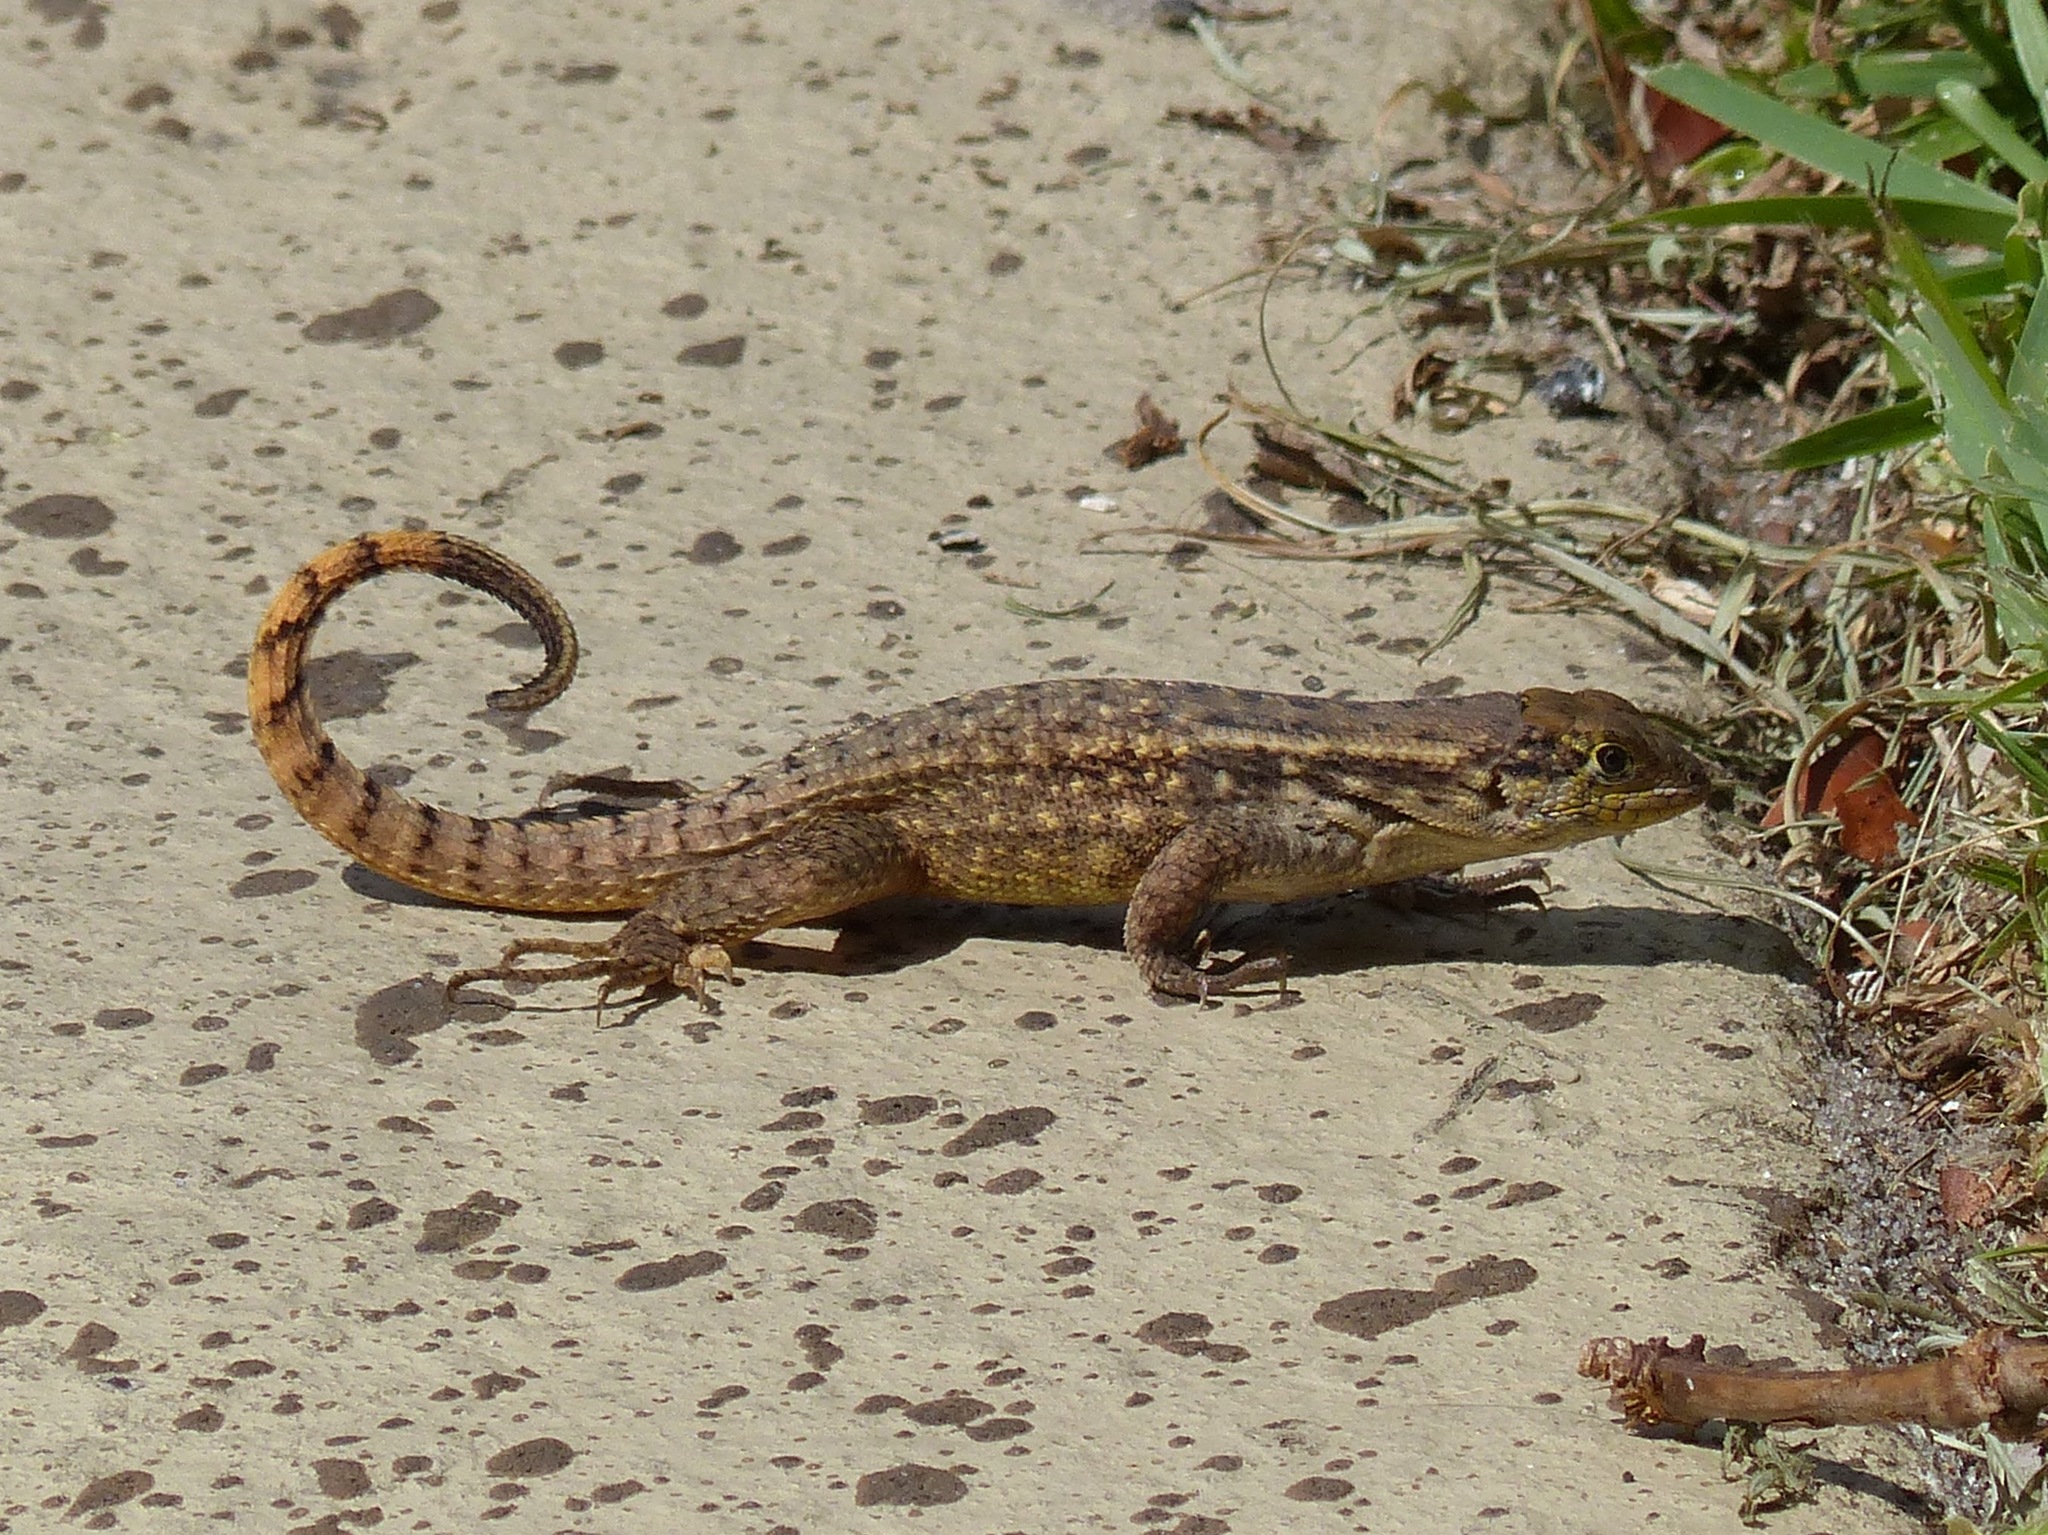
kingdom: Animalia
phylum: Chordata
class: Squamata
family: Leiocephalidae
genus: Leiocephalus
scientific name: Leiocephalus carinatus
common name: Northern curly-tailed lizard
